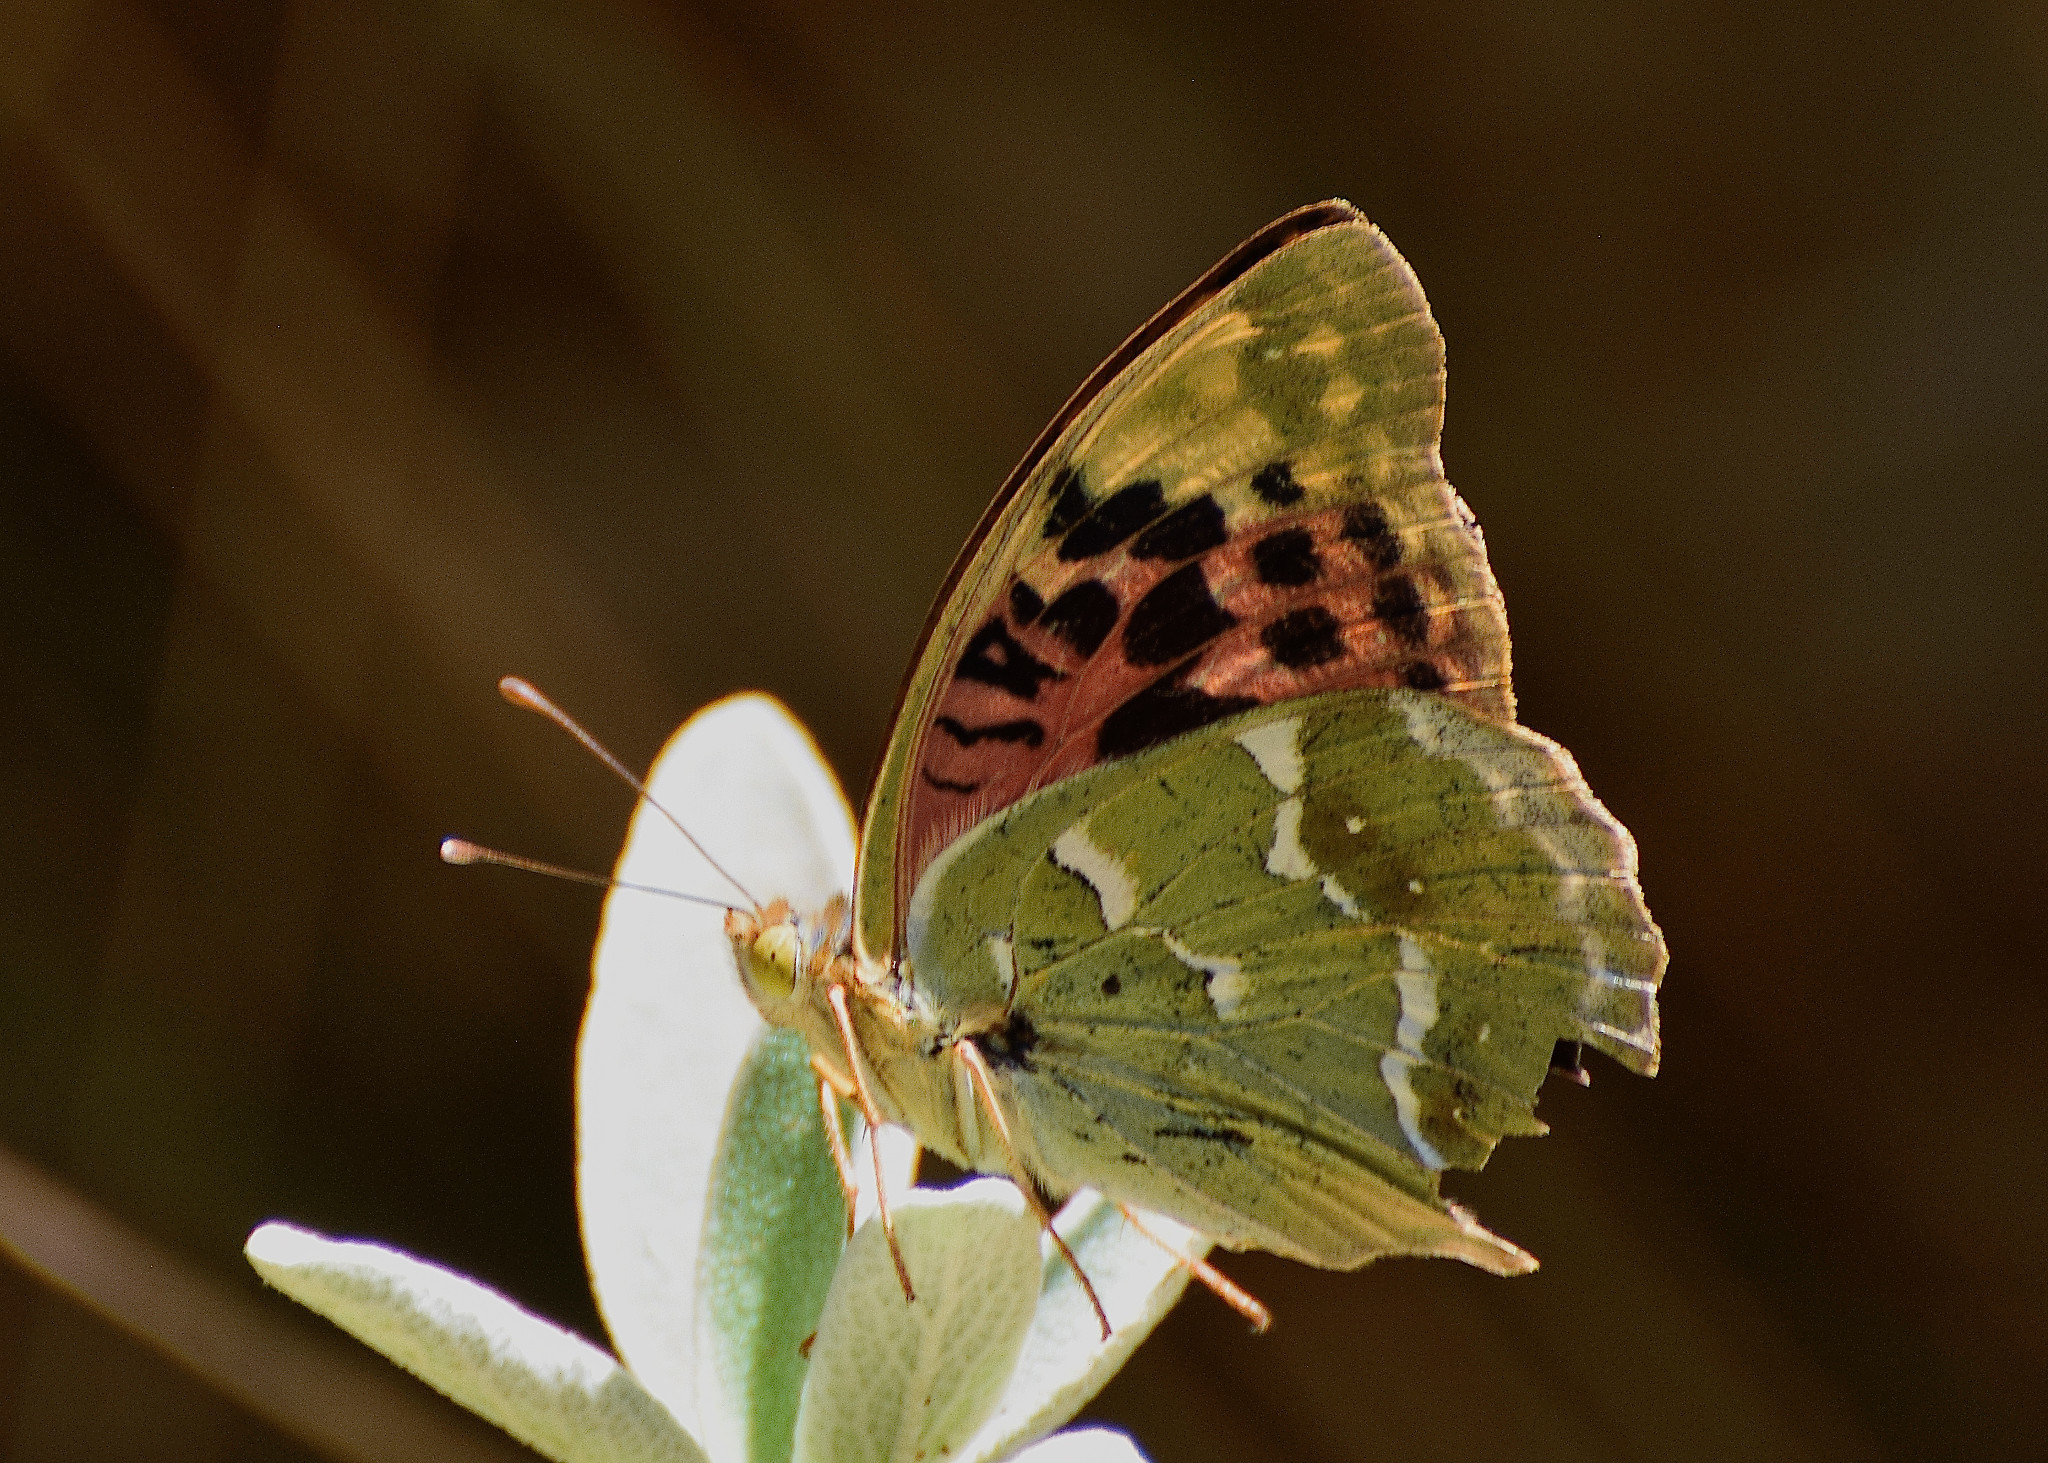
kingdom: Animalia
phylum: Arthropoda
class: Insecta
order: Lepidoptera
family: Nymphalidae
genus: Damora
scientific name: Damora pandora
